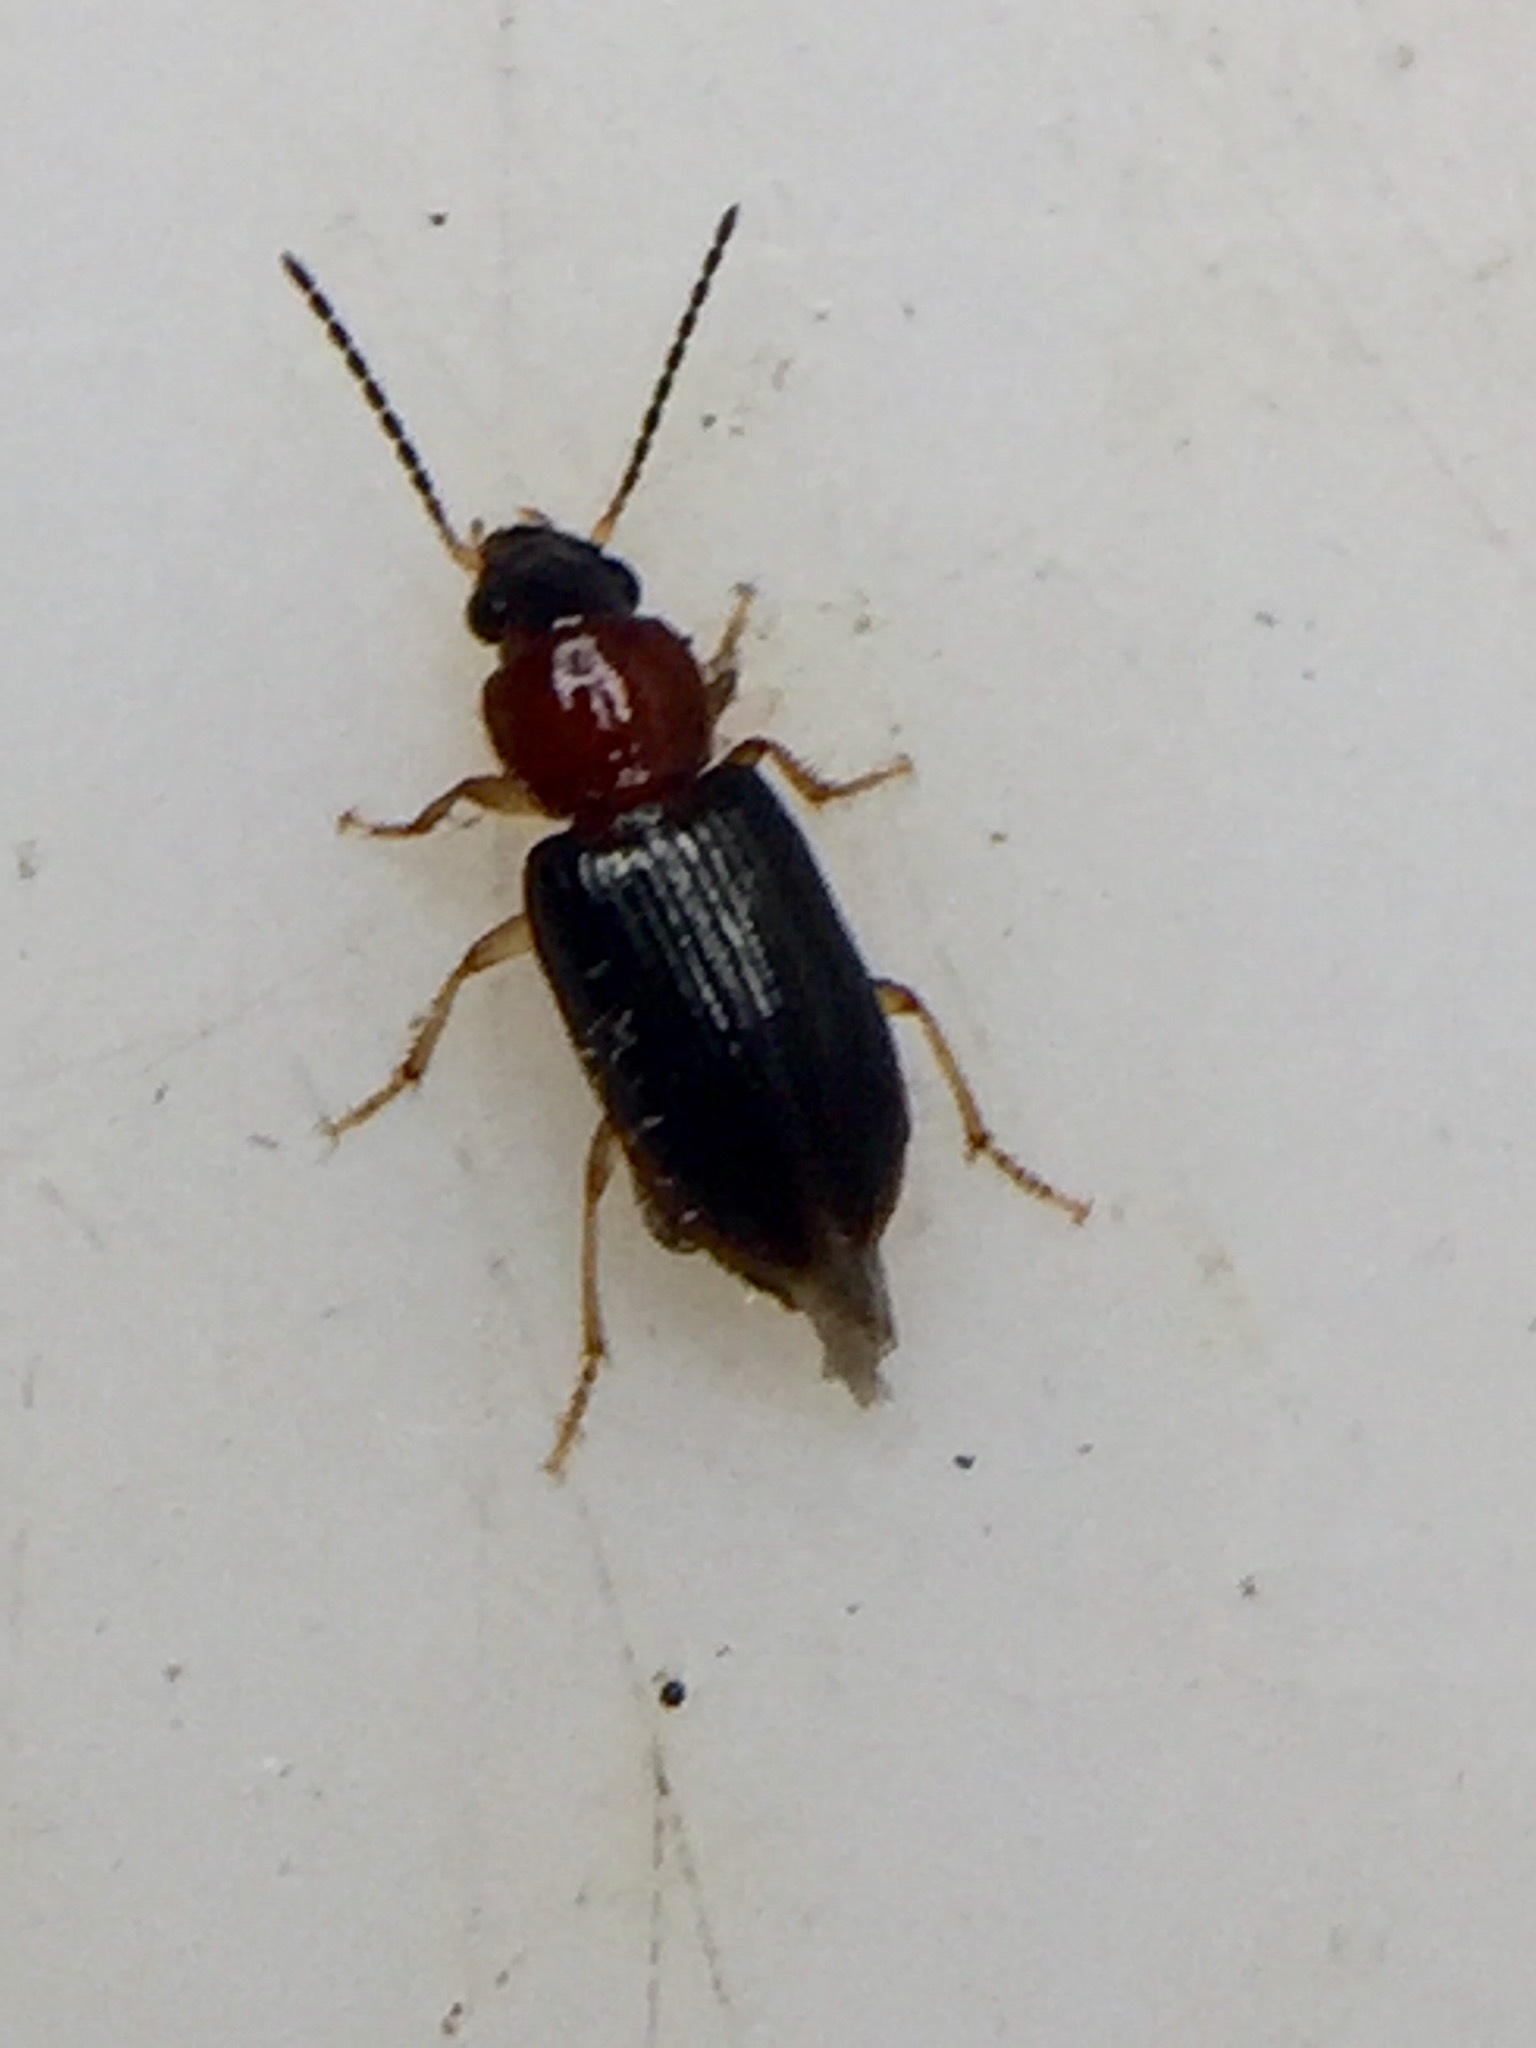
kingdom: Animalia
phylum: Arthropoda
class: Insecta
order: Coleoptera
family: Carabidae
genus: Lecanomerus
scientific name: Lecanomerus atriceps
